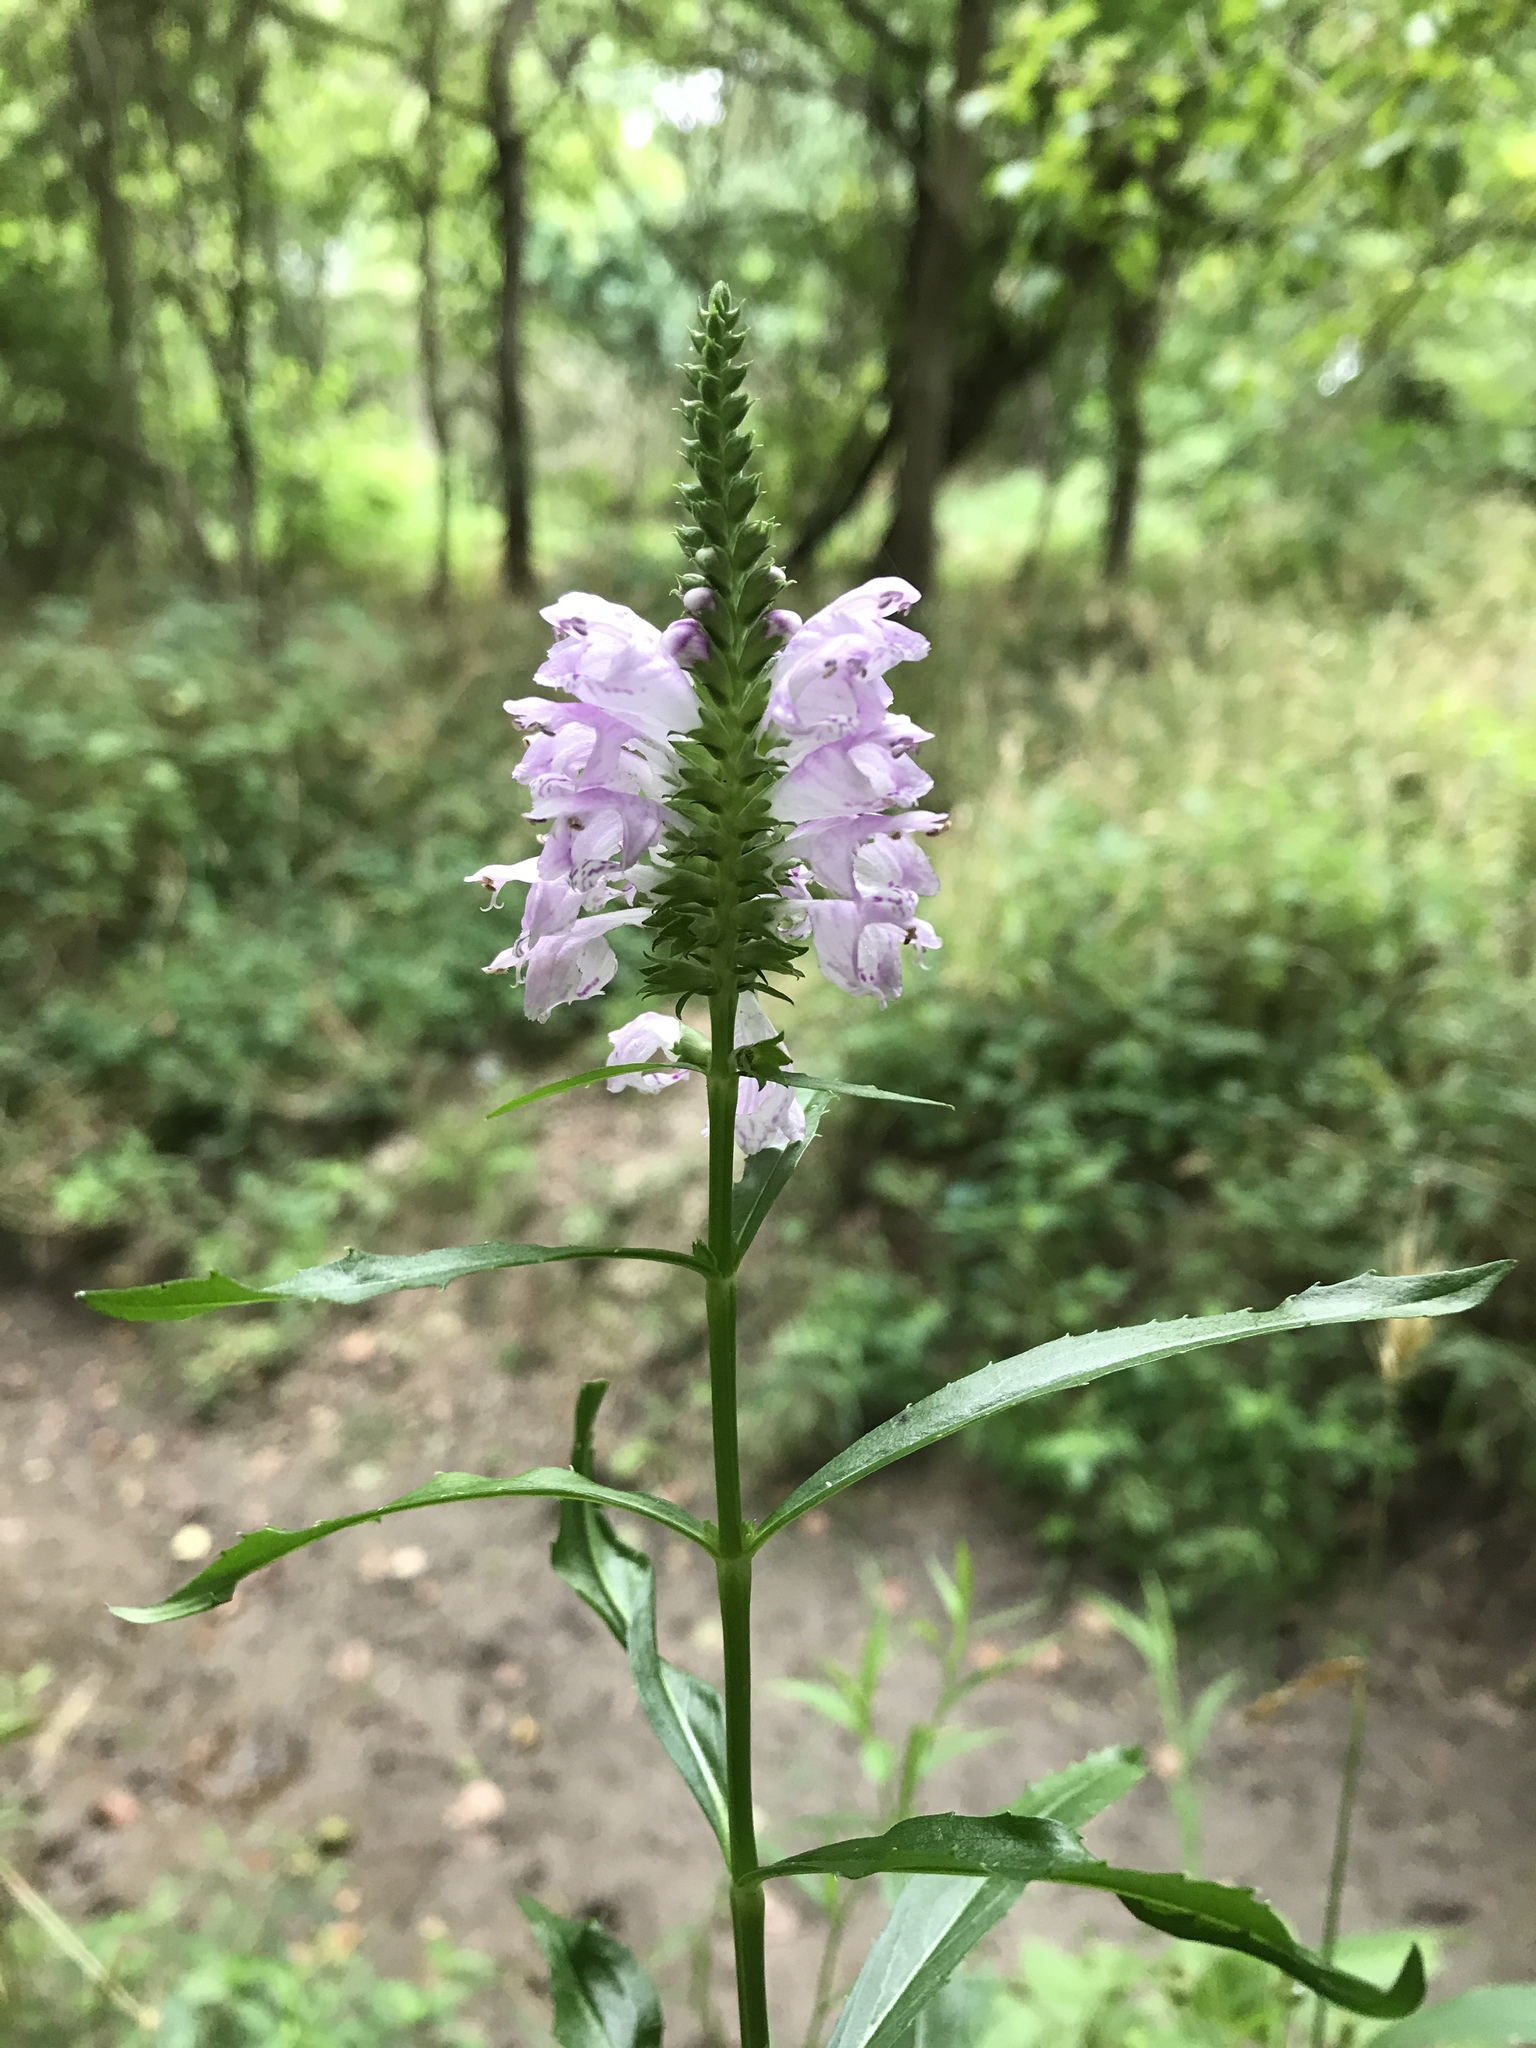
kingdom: Plantae
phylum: Tracheophyta
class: Magnoliopsida
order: Lamiales
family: Lamiaceae
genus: Physostegia
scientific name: Physostegia virginiana
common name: Obedient-plant
